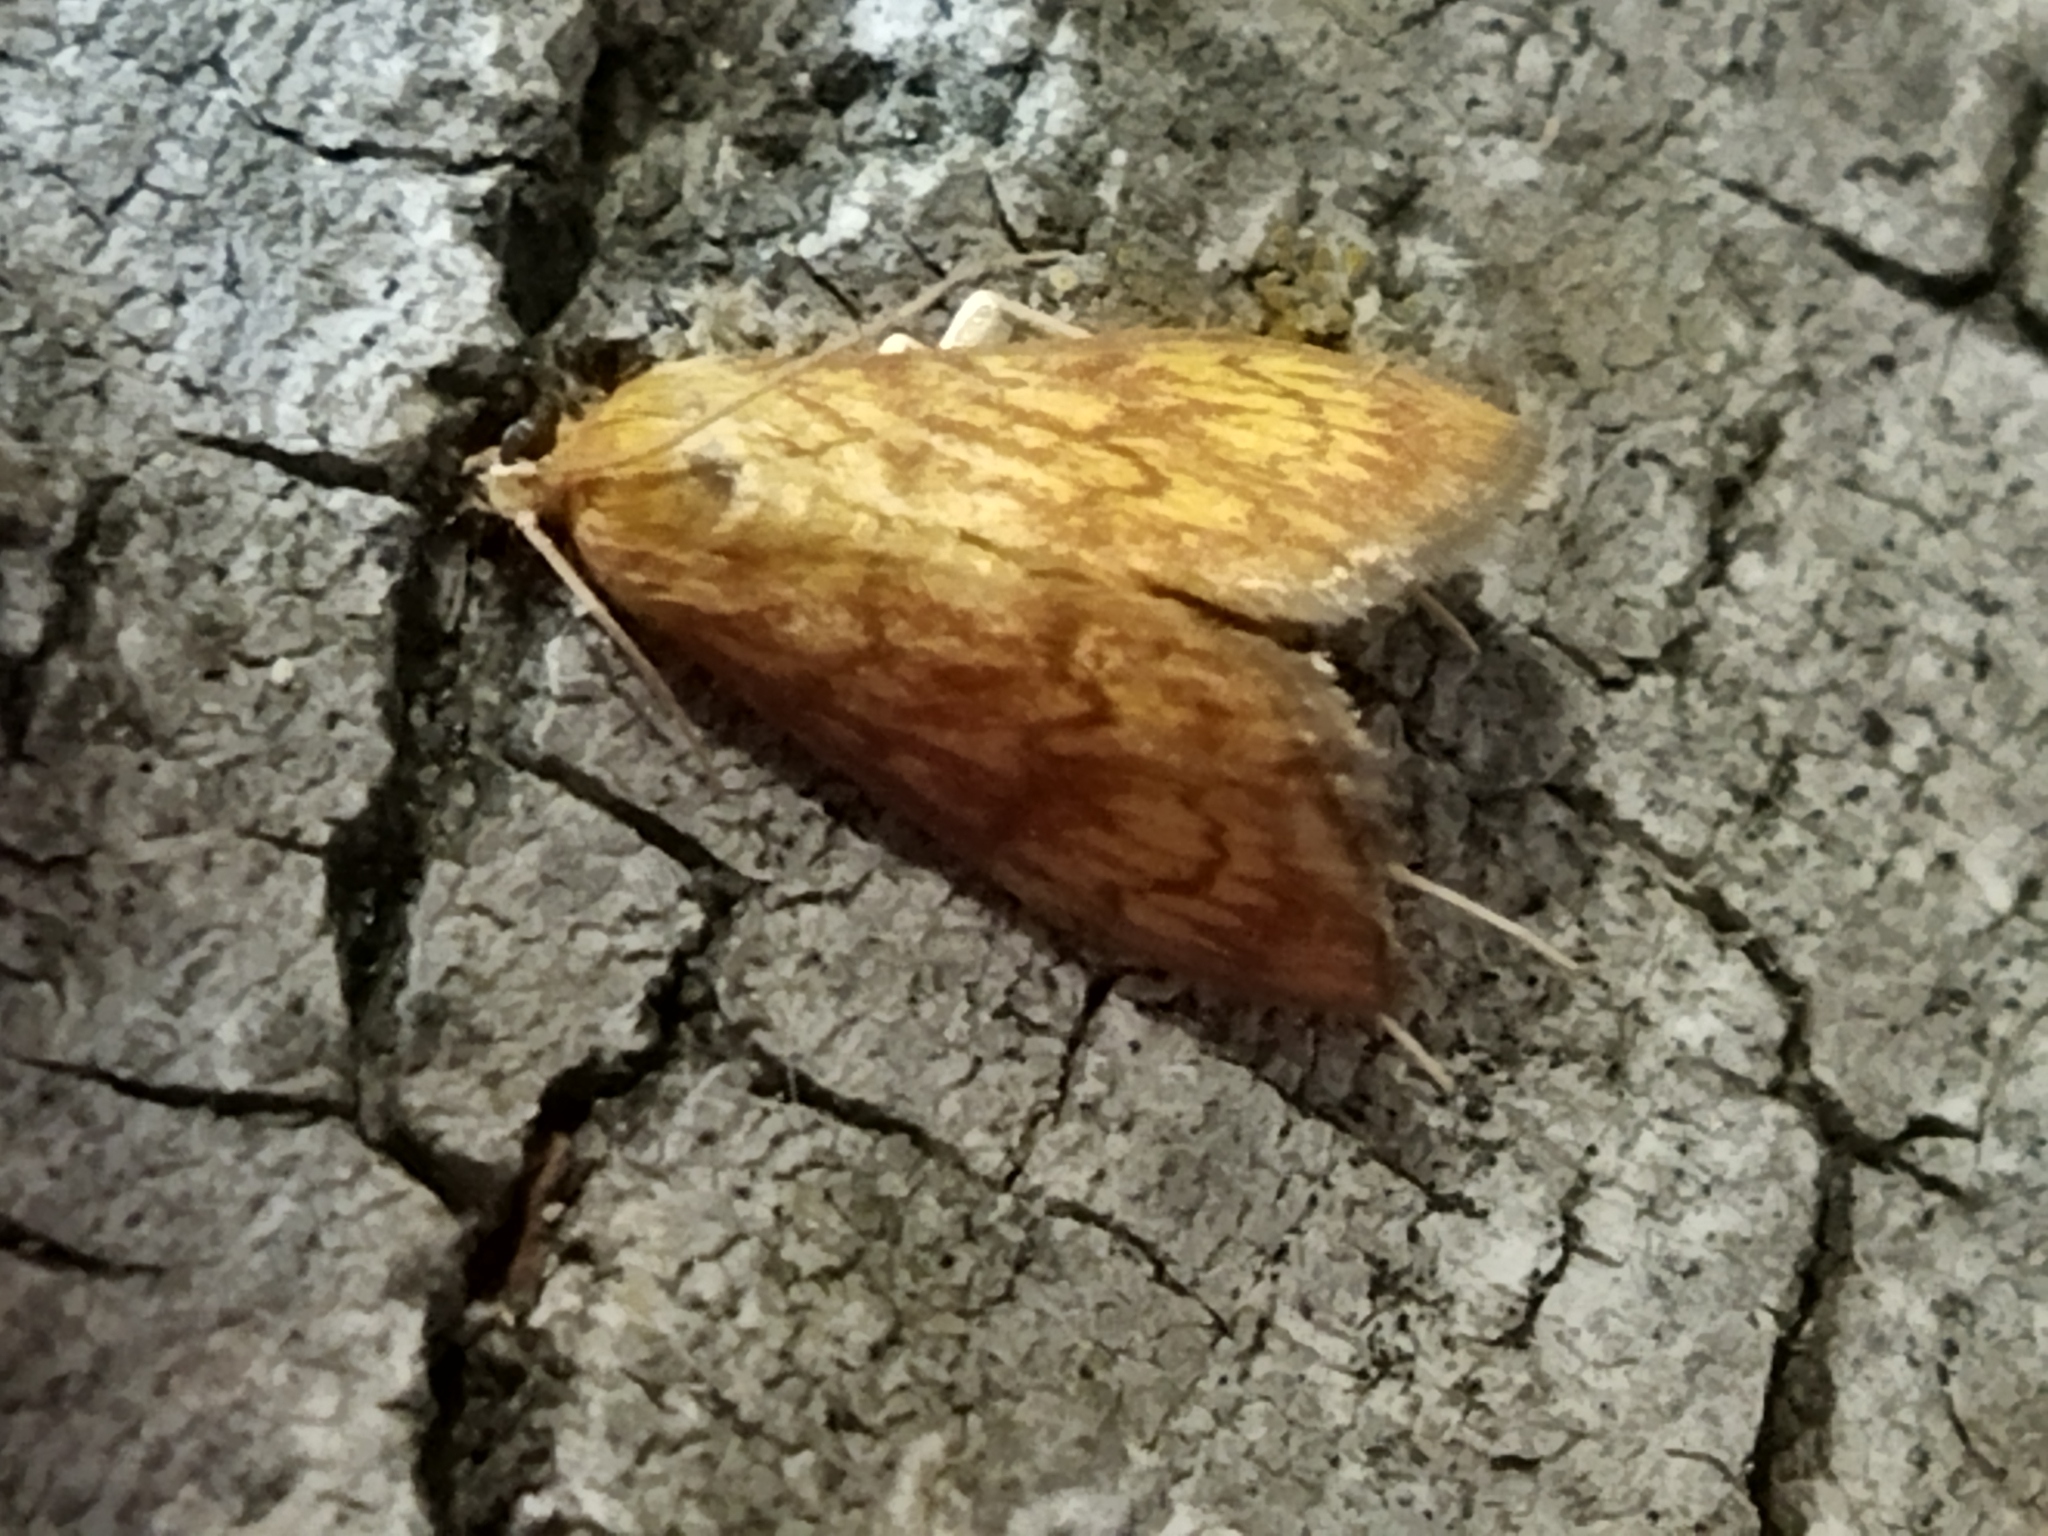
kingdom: Animalia
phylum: Arthropoda
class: Insecta
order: Lepidoptera
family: Crambidae
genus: Ecpyrrhorrhoe
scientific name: Ecpyrrhorrhoe rubiginalis
